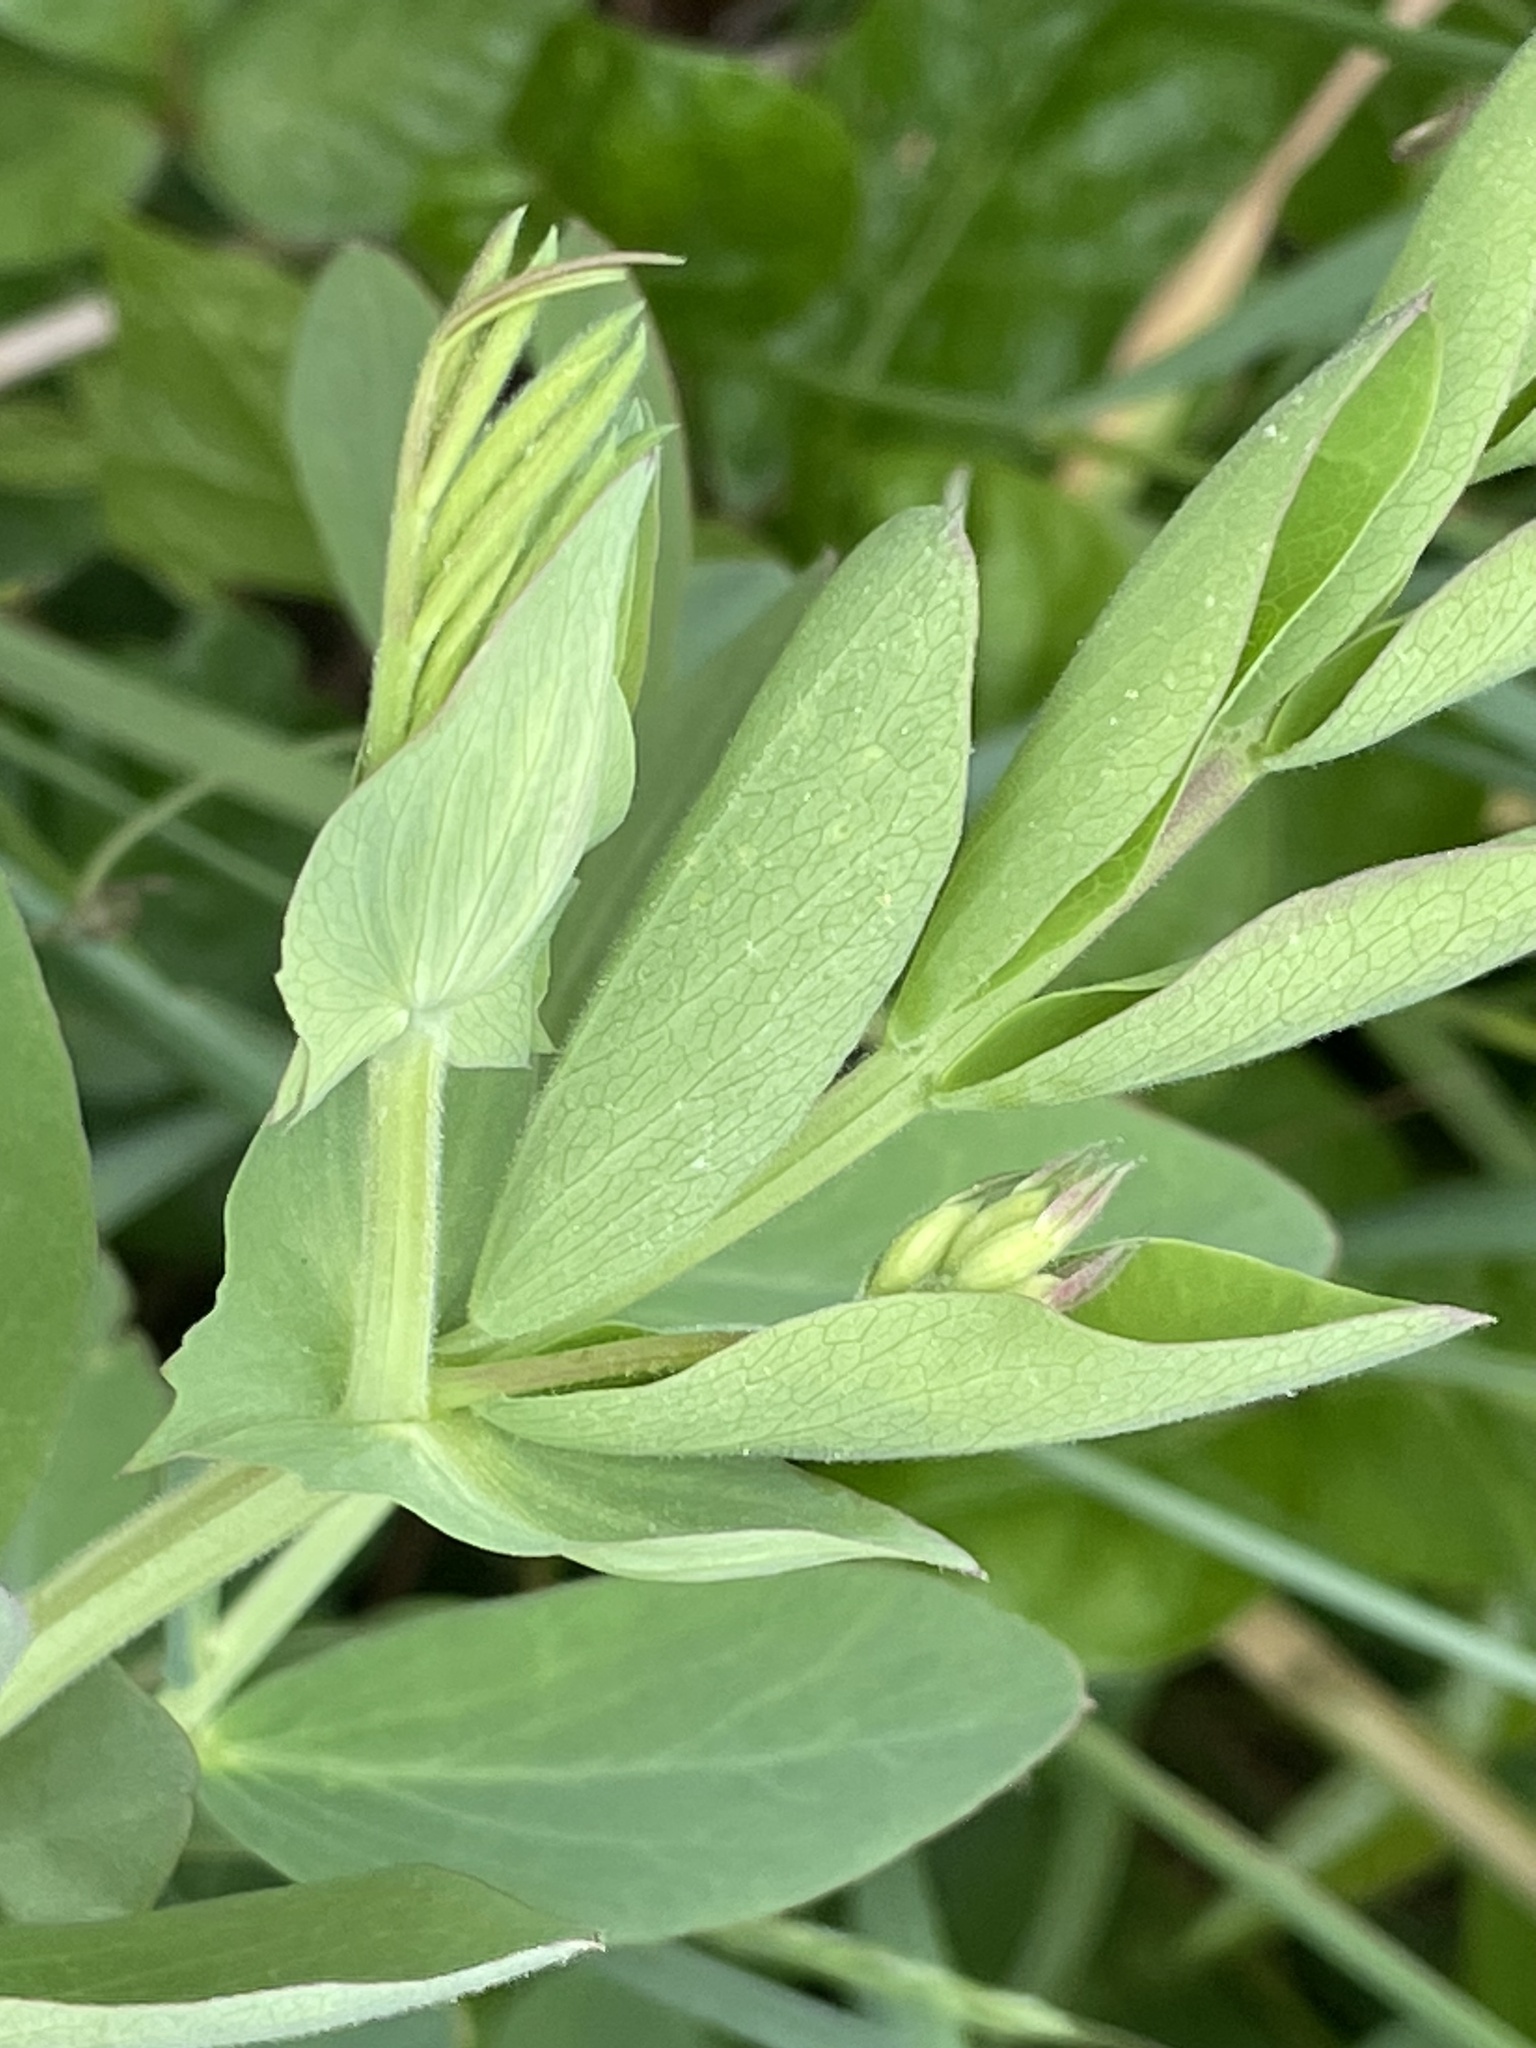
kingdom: Plantae
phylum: Tracheophyta
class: Magnoliopsida
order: Fabales
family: Fabaceae
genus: Lathyrus
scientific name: Lathyrus japonicus
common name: Sea pea
